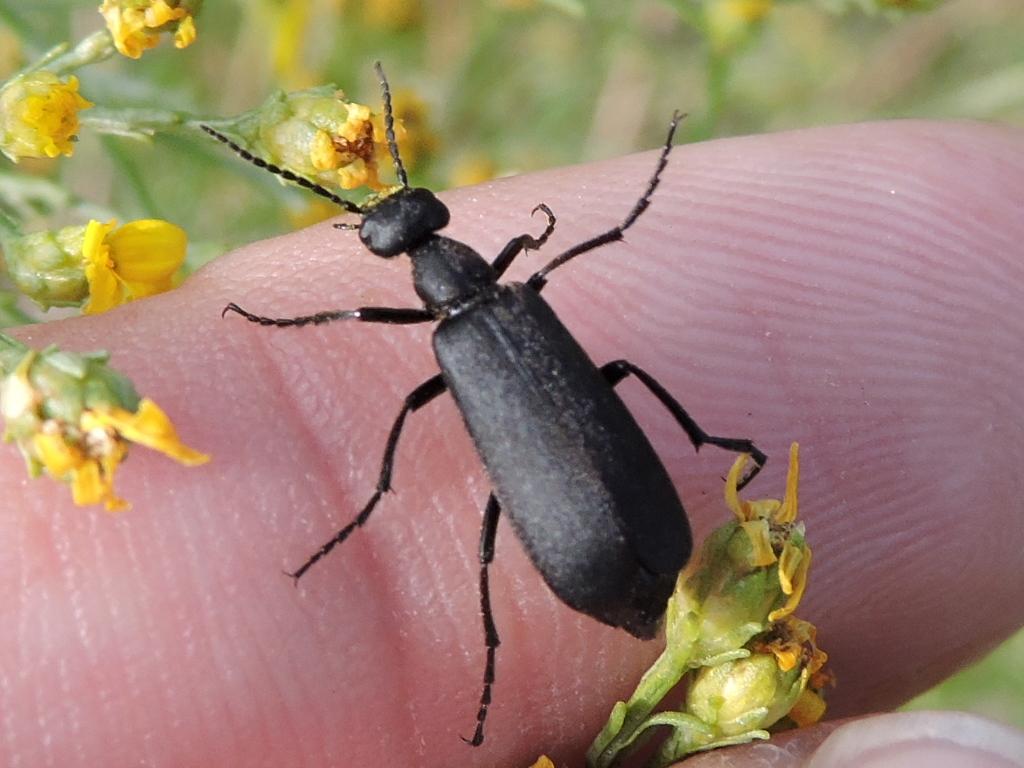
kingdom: Animalia
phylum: Arthropoda
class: Insecta
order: Coleoptera
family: Meloidae
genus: Epicauta
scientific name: Epicauta pensylvanica
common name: Black blister beetle
